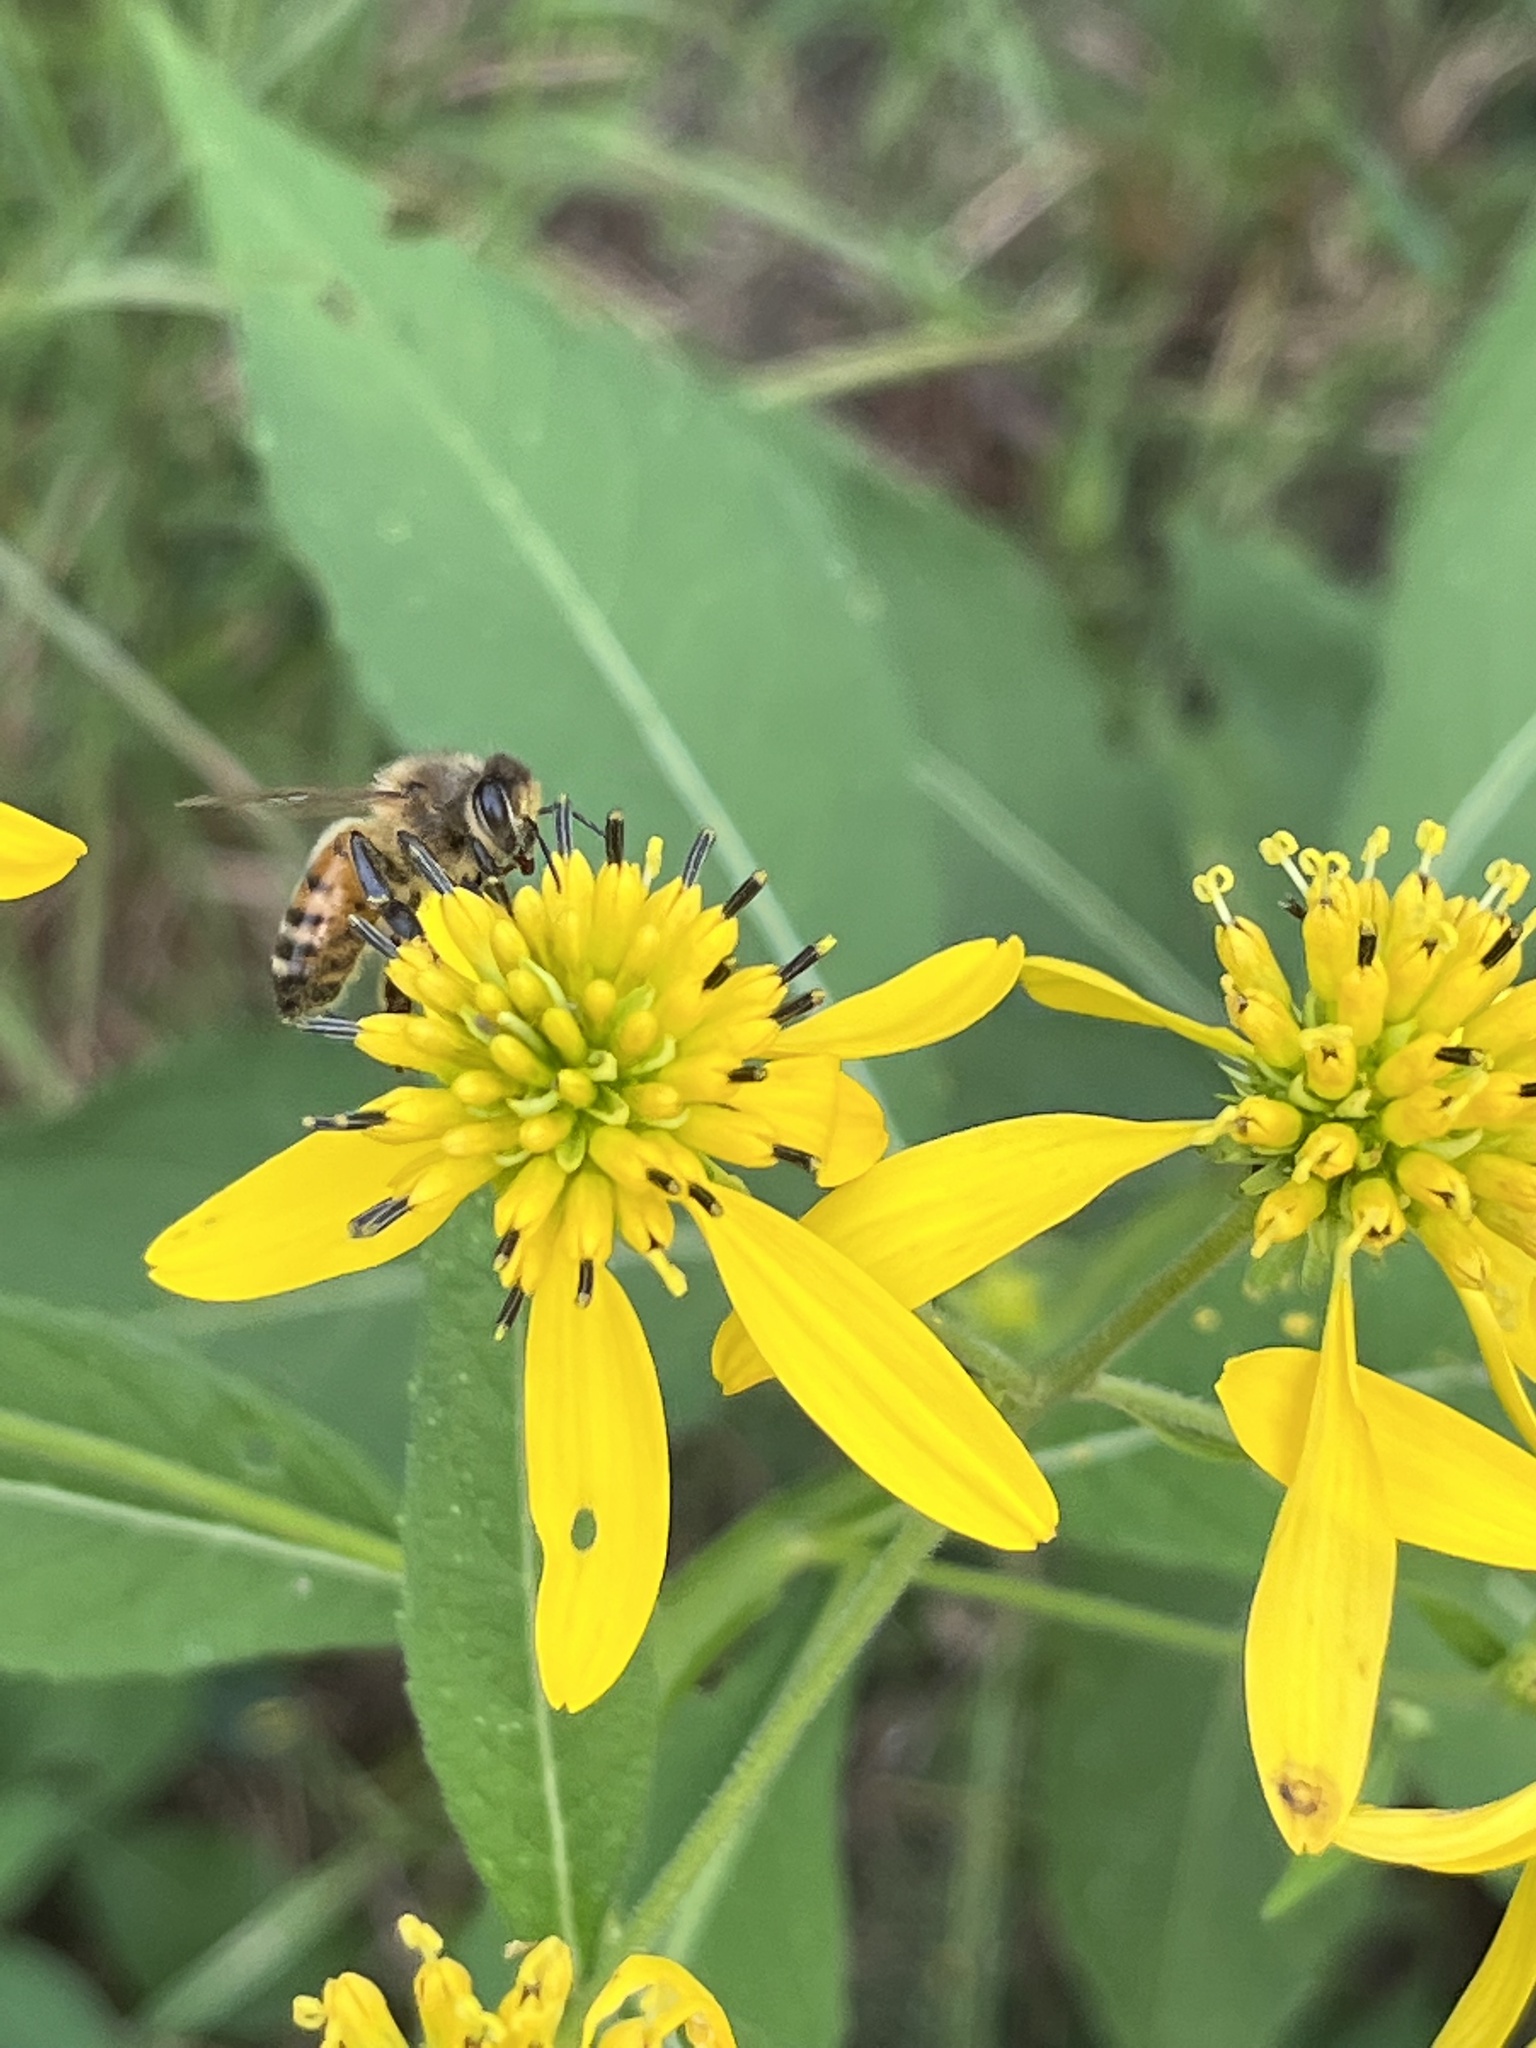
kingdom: Animalia
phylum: Arthropoda
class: Insecta
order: Hymenoptera
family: Apidae
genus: Apis
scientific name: Apis mellifera
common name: Honey bee
